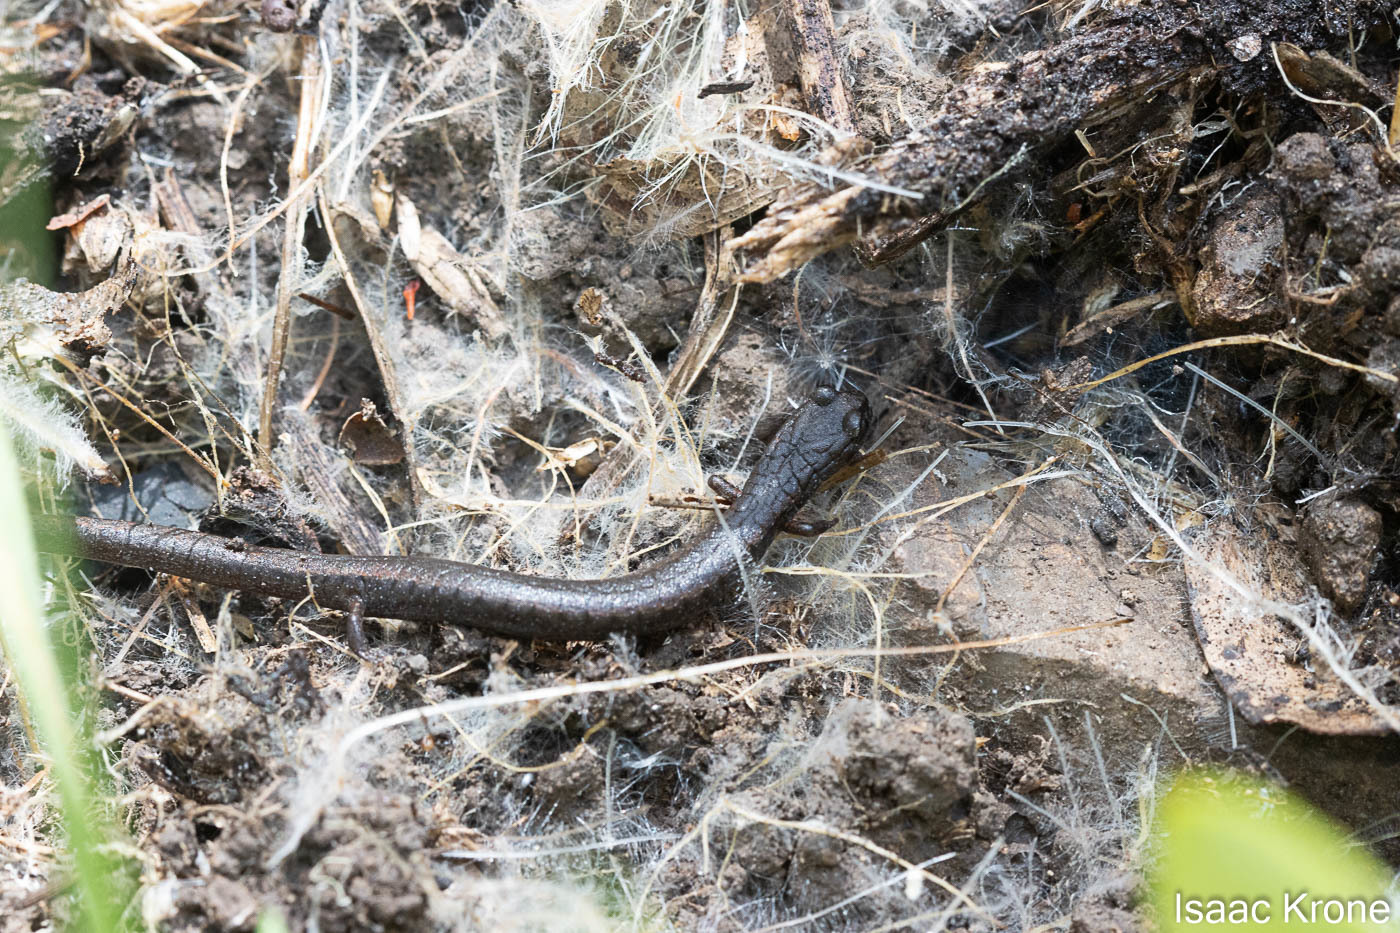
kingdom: Animalia
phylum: Chordata
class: Amphibia
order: Caudata
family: Plethodontidae
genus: Batrachoseps
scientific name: Batrachoseps attenuatus
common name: California slender salamander
